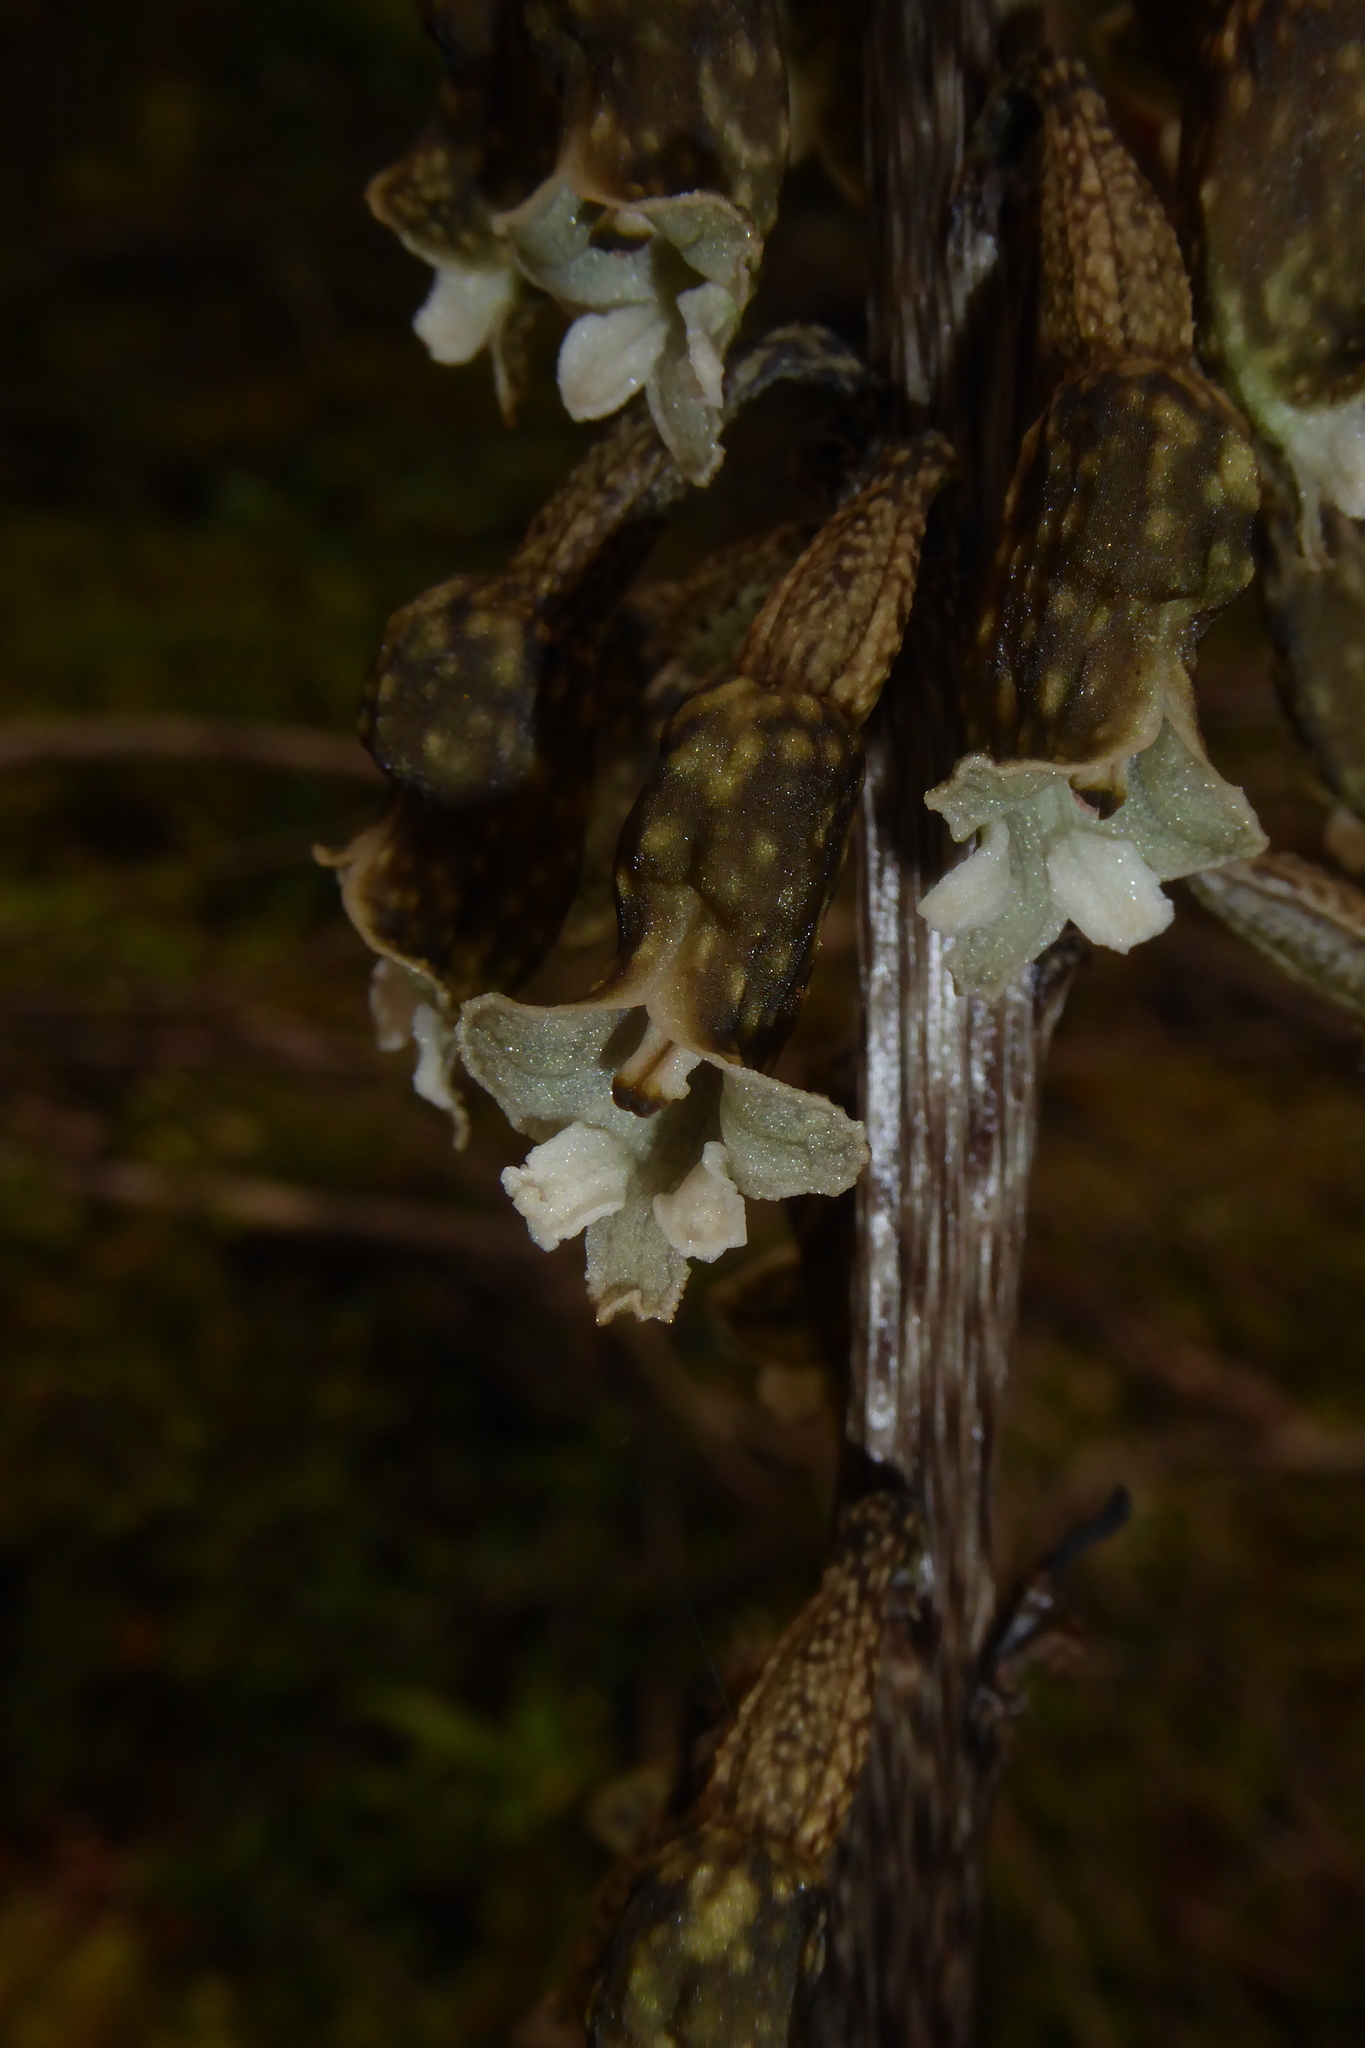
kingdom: Plantae
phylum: Tracheophyta
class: Liliopsida
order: Asparagales
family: Orchidaceae
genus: Gastrodia
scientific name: Gastrodia cunninghamii
